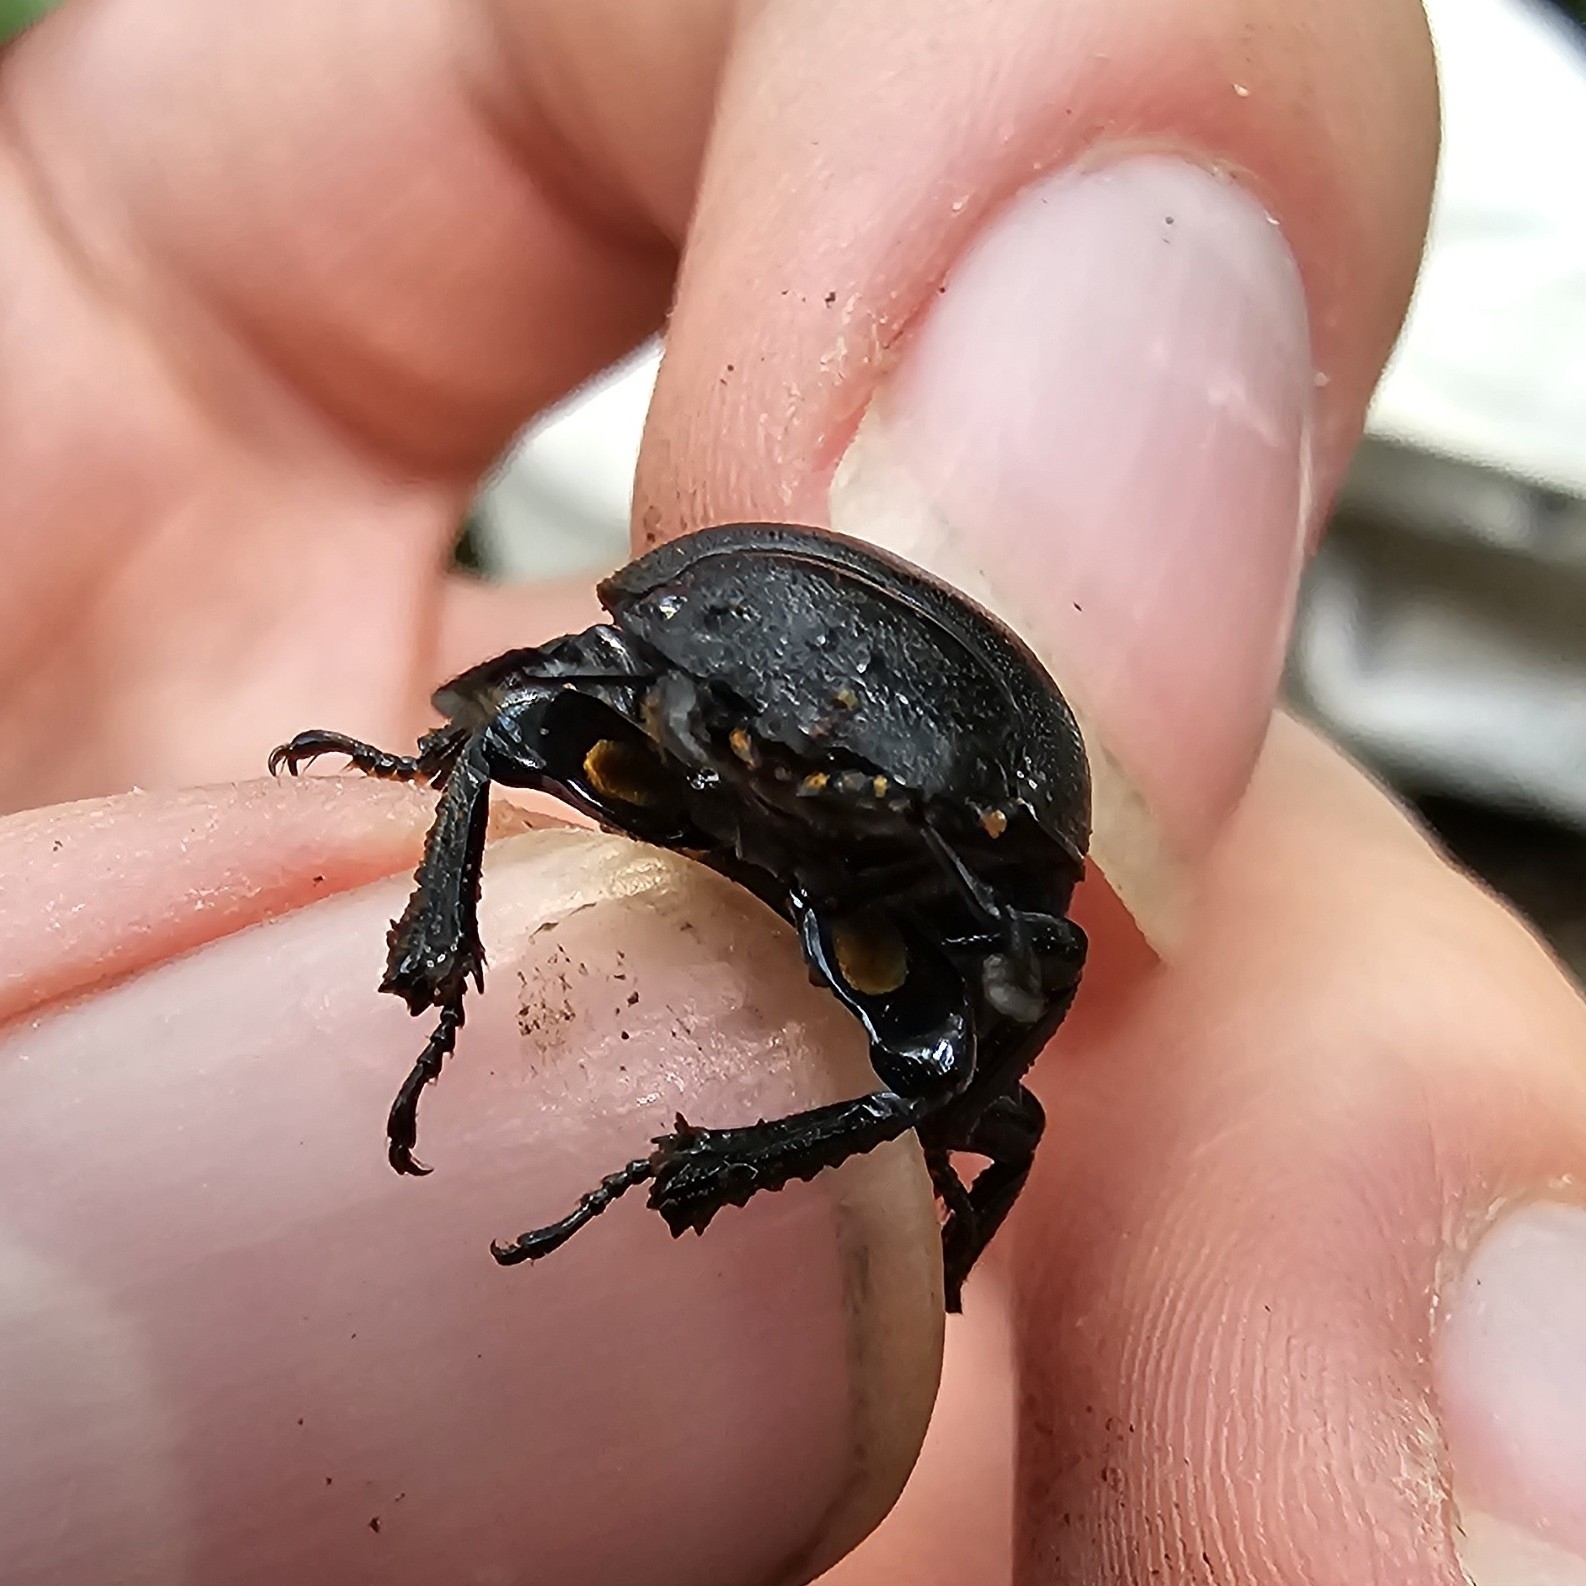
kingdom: Animalia
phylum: Arthropoda
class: Insecta
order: Coleoptera
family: Lucanidae
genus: Dorcus
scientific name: Dorcus parallelipipedus
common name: Lesser stag beetle
